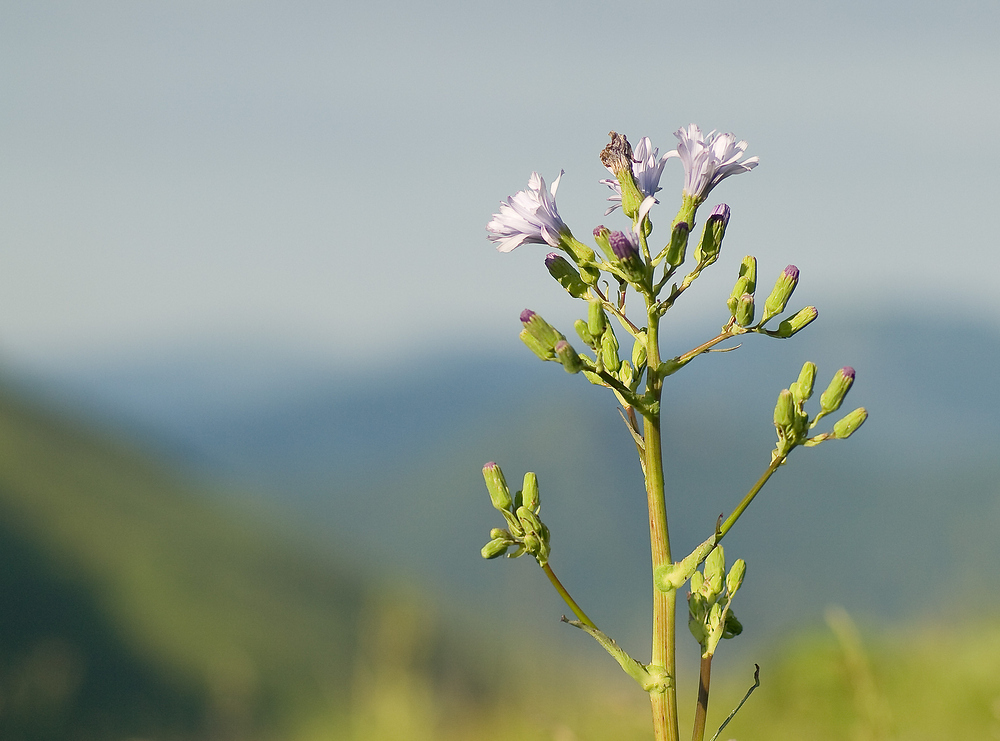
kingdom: Plantae
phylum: Tracheophyta
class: Magnoliopsida
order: Asterales
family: Asteraceae
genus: Lactuca
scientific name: Lactuca plumieri
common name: Hairless blue-sow-thistle
